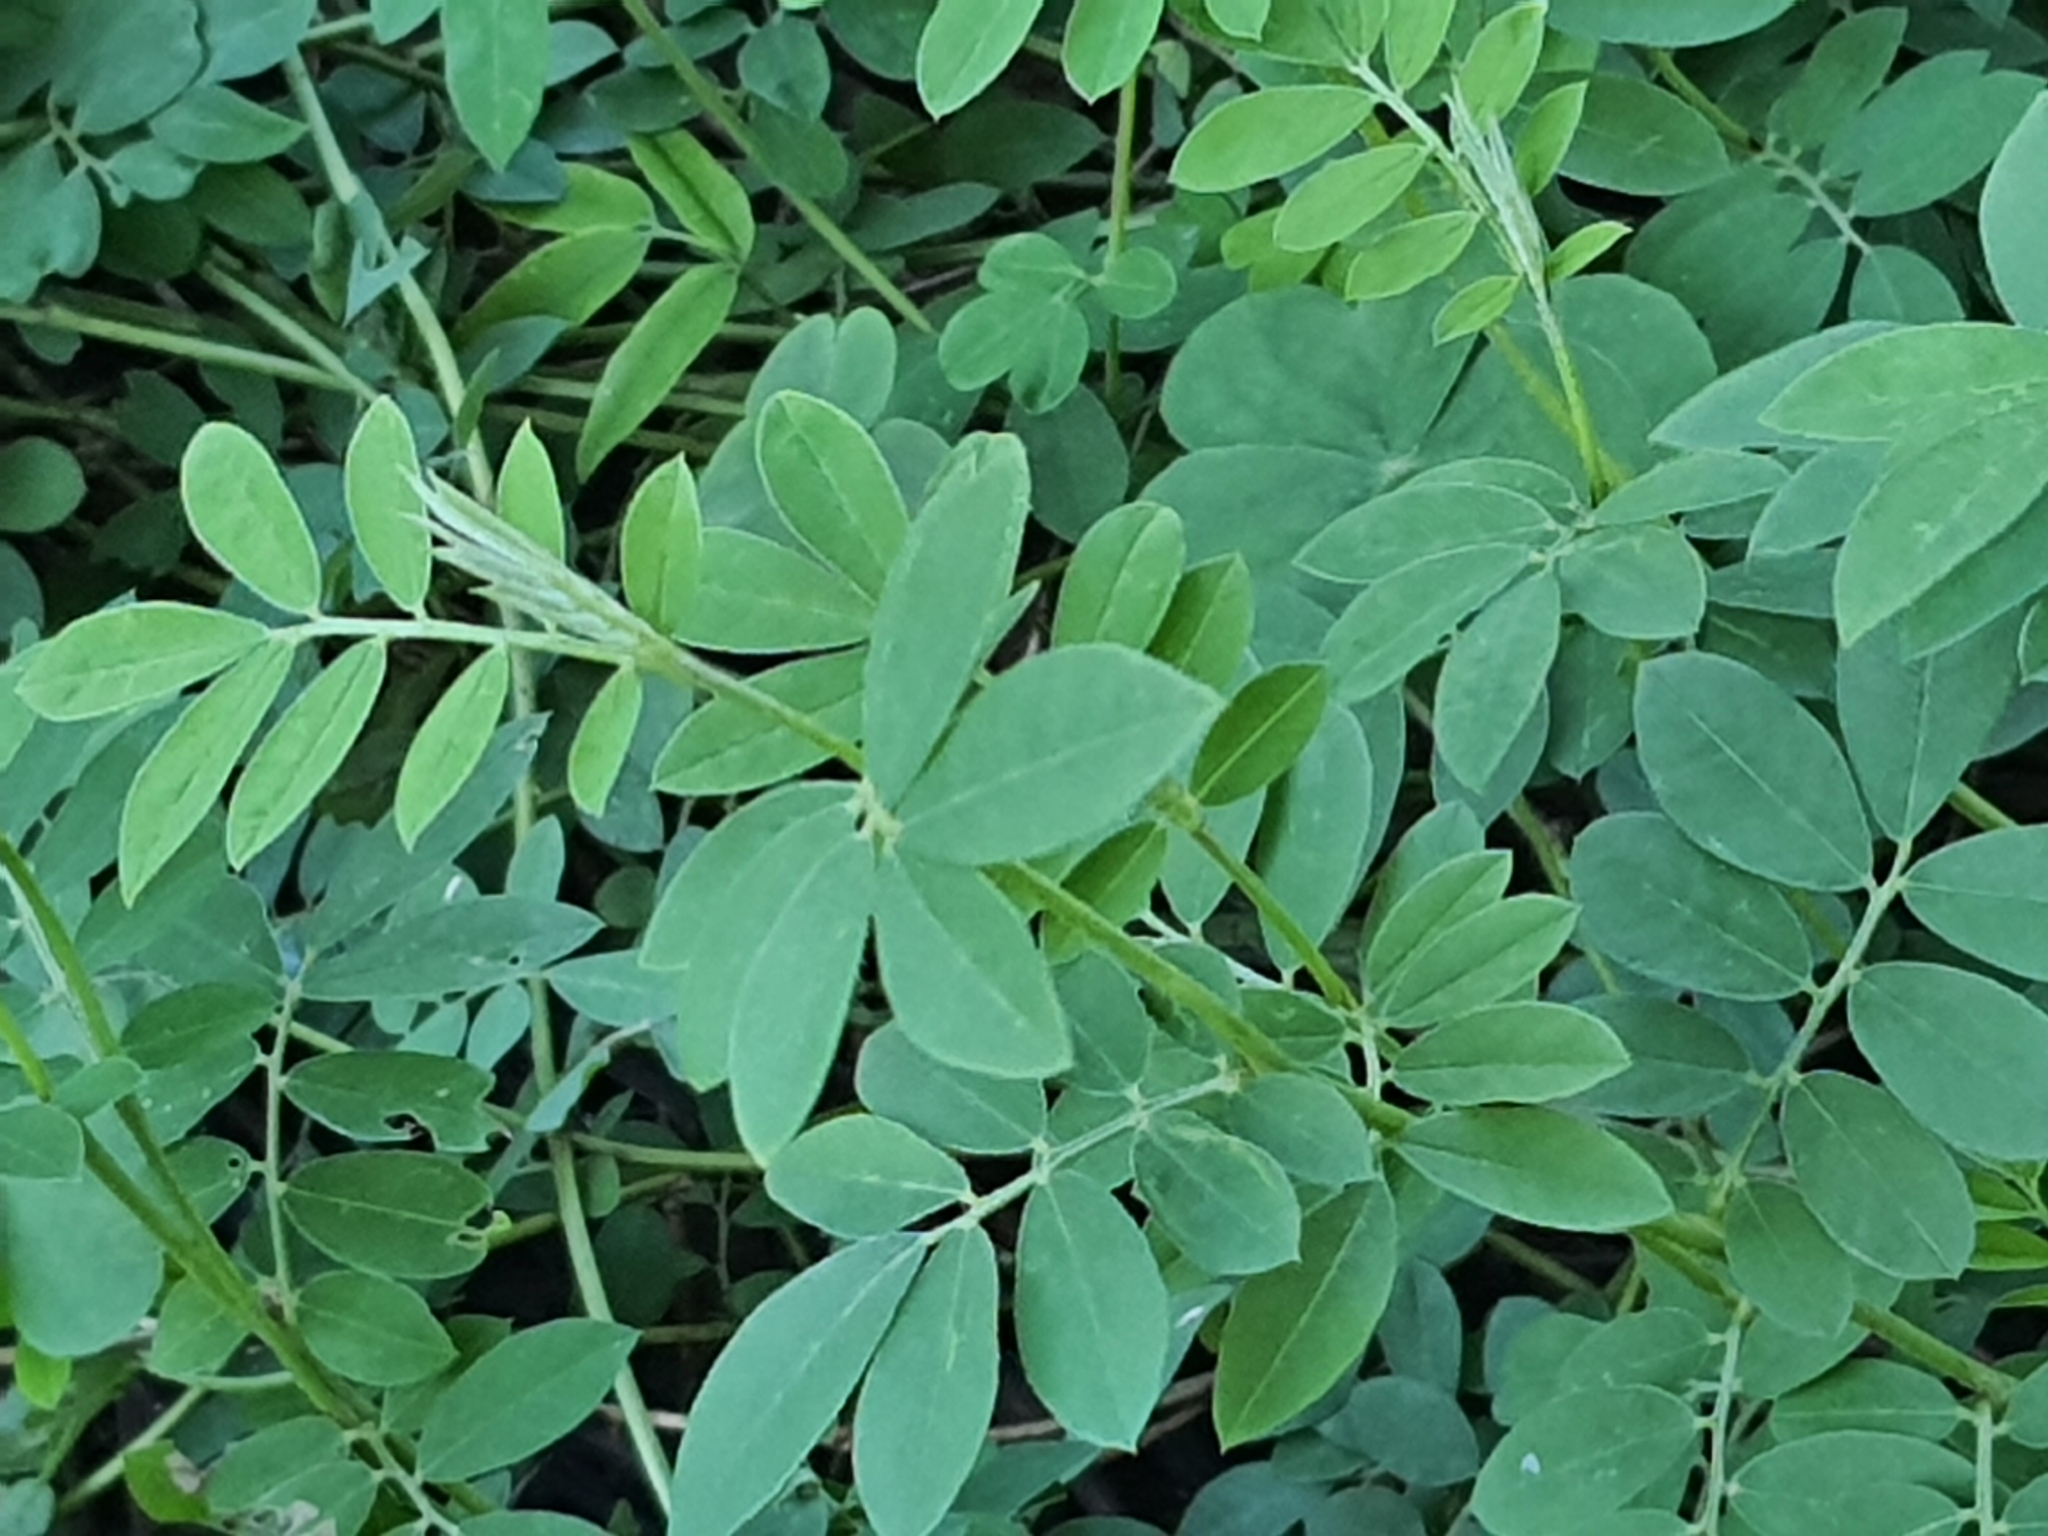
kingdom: Plantae
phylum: Tracheophyta
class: Magnoliopsida
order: Fabales
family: Fabaceae
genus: Indigofera
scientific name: Indigofera spicata
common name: Creeping indigo
